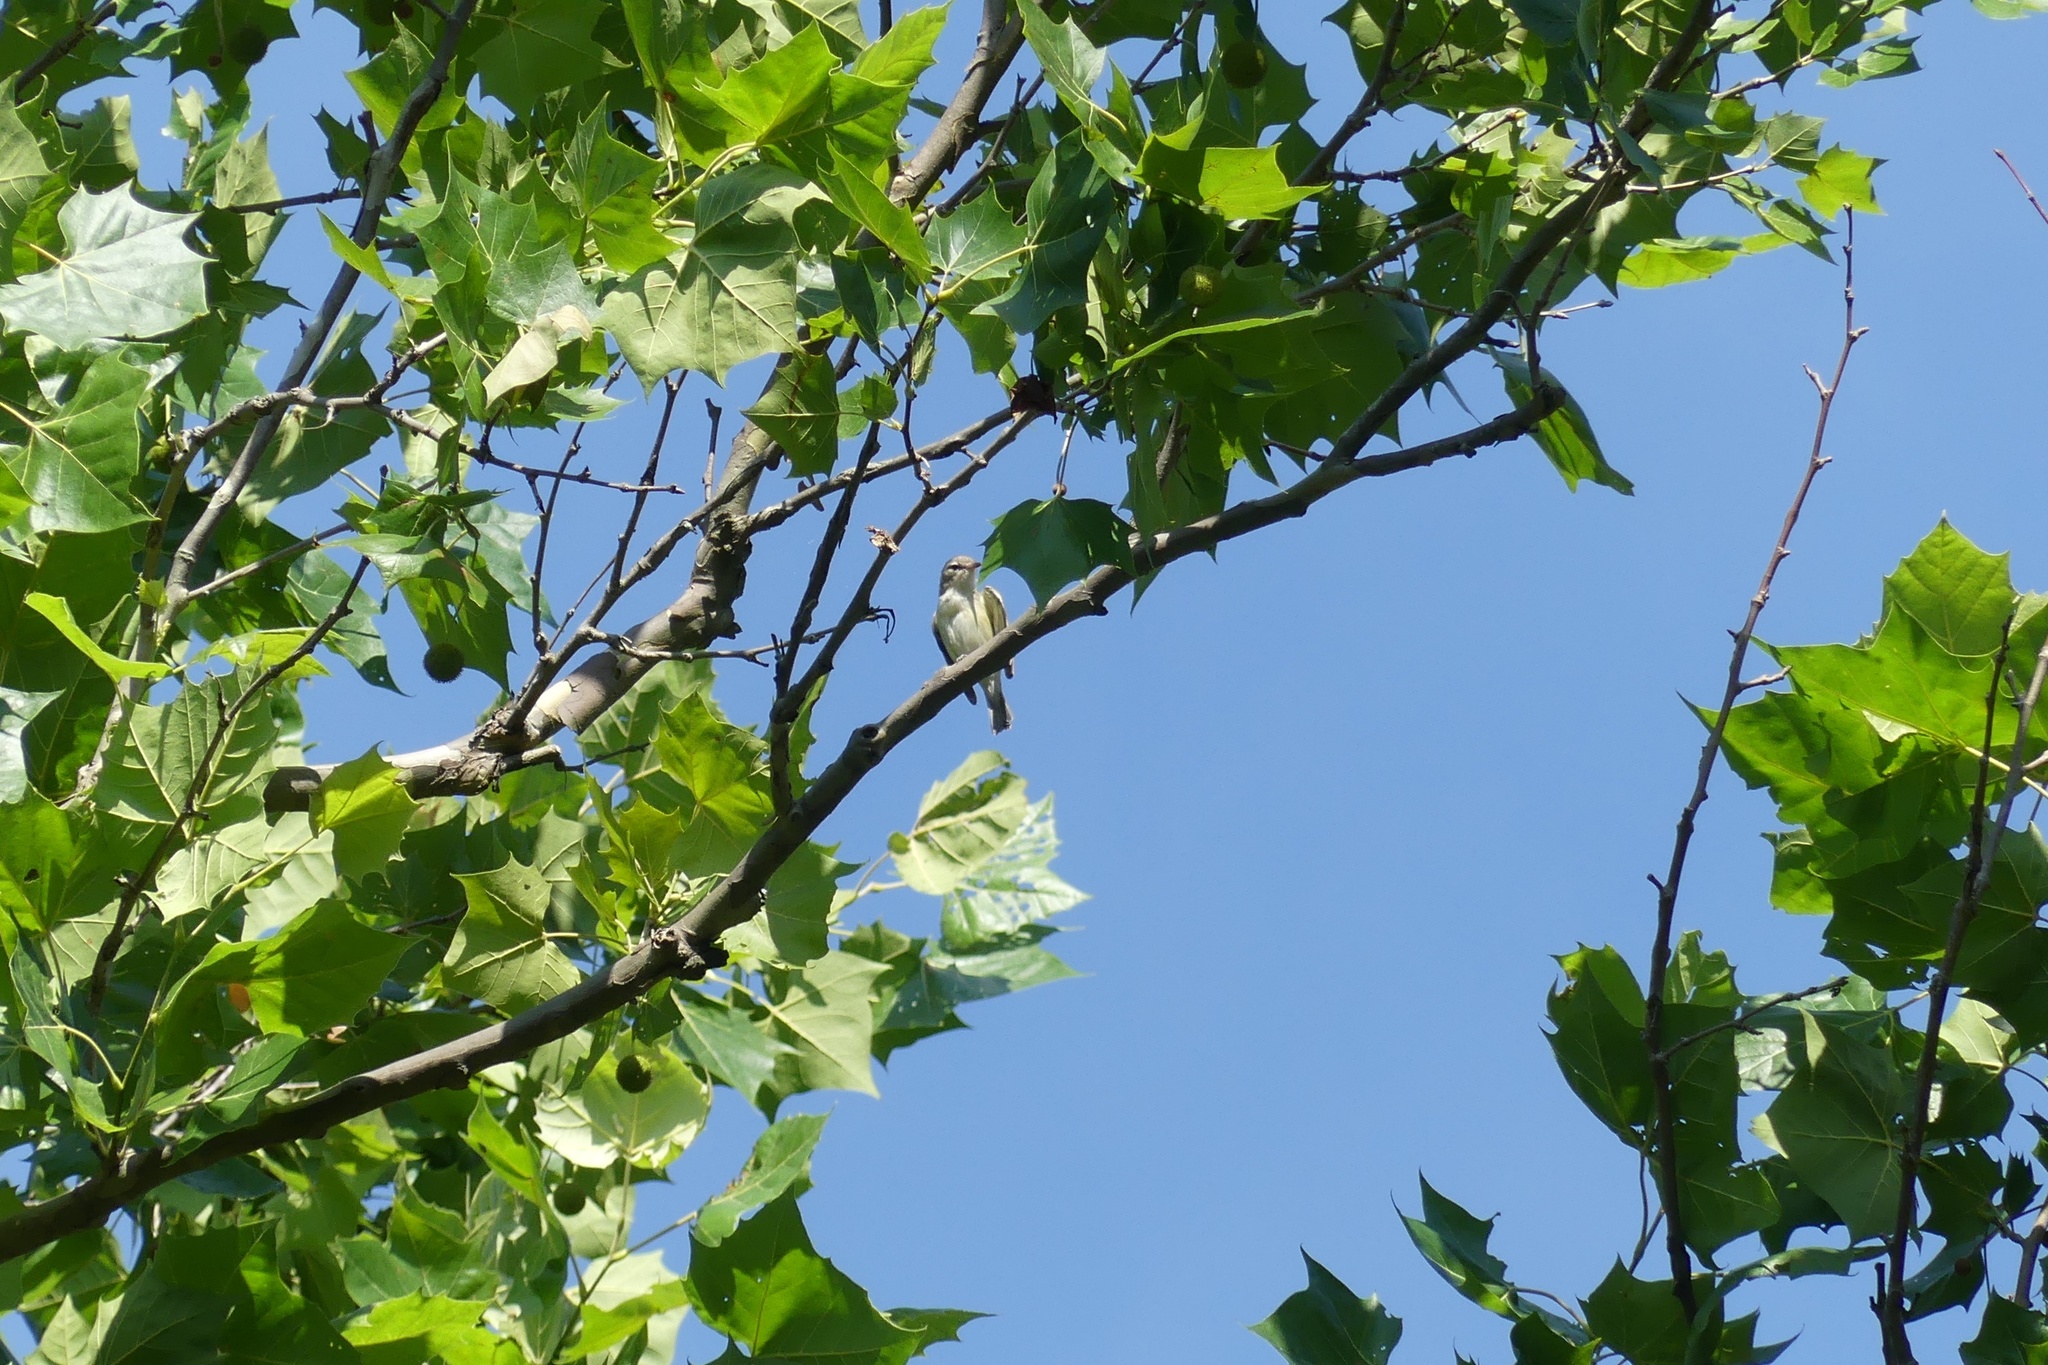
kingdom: Animalia
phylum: Chordata
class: Aves
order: Passeriformes
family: Vireonidae
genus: Vireo
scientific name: Vireo gilvus
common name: Warbling vireo
